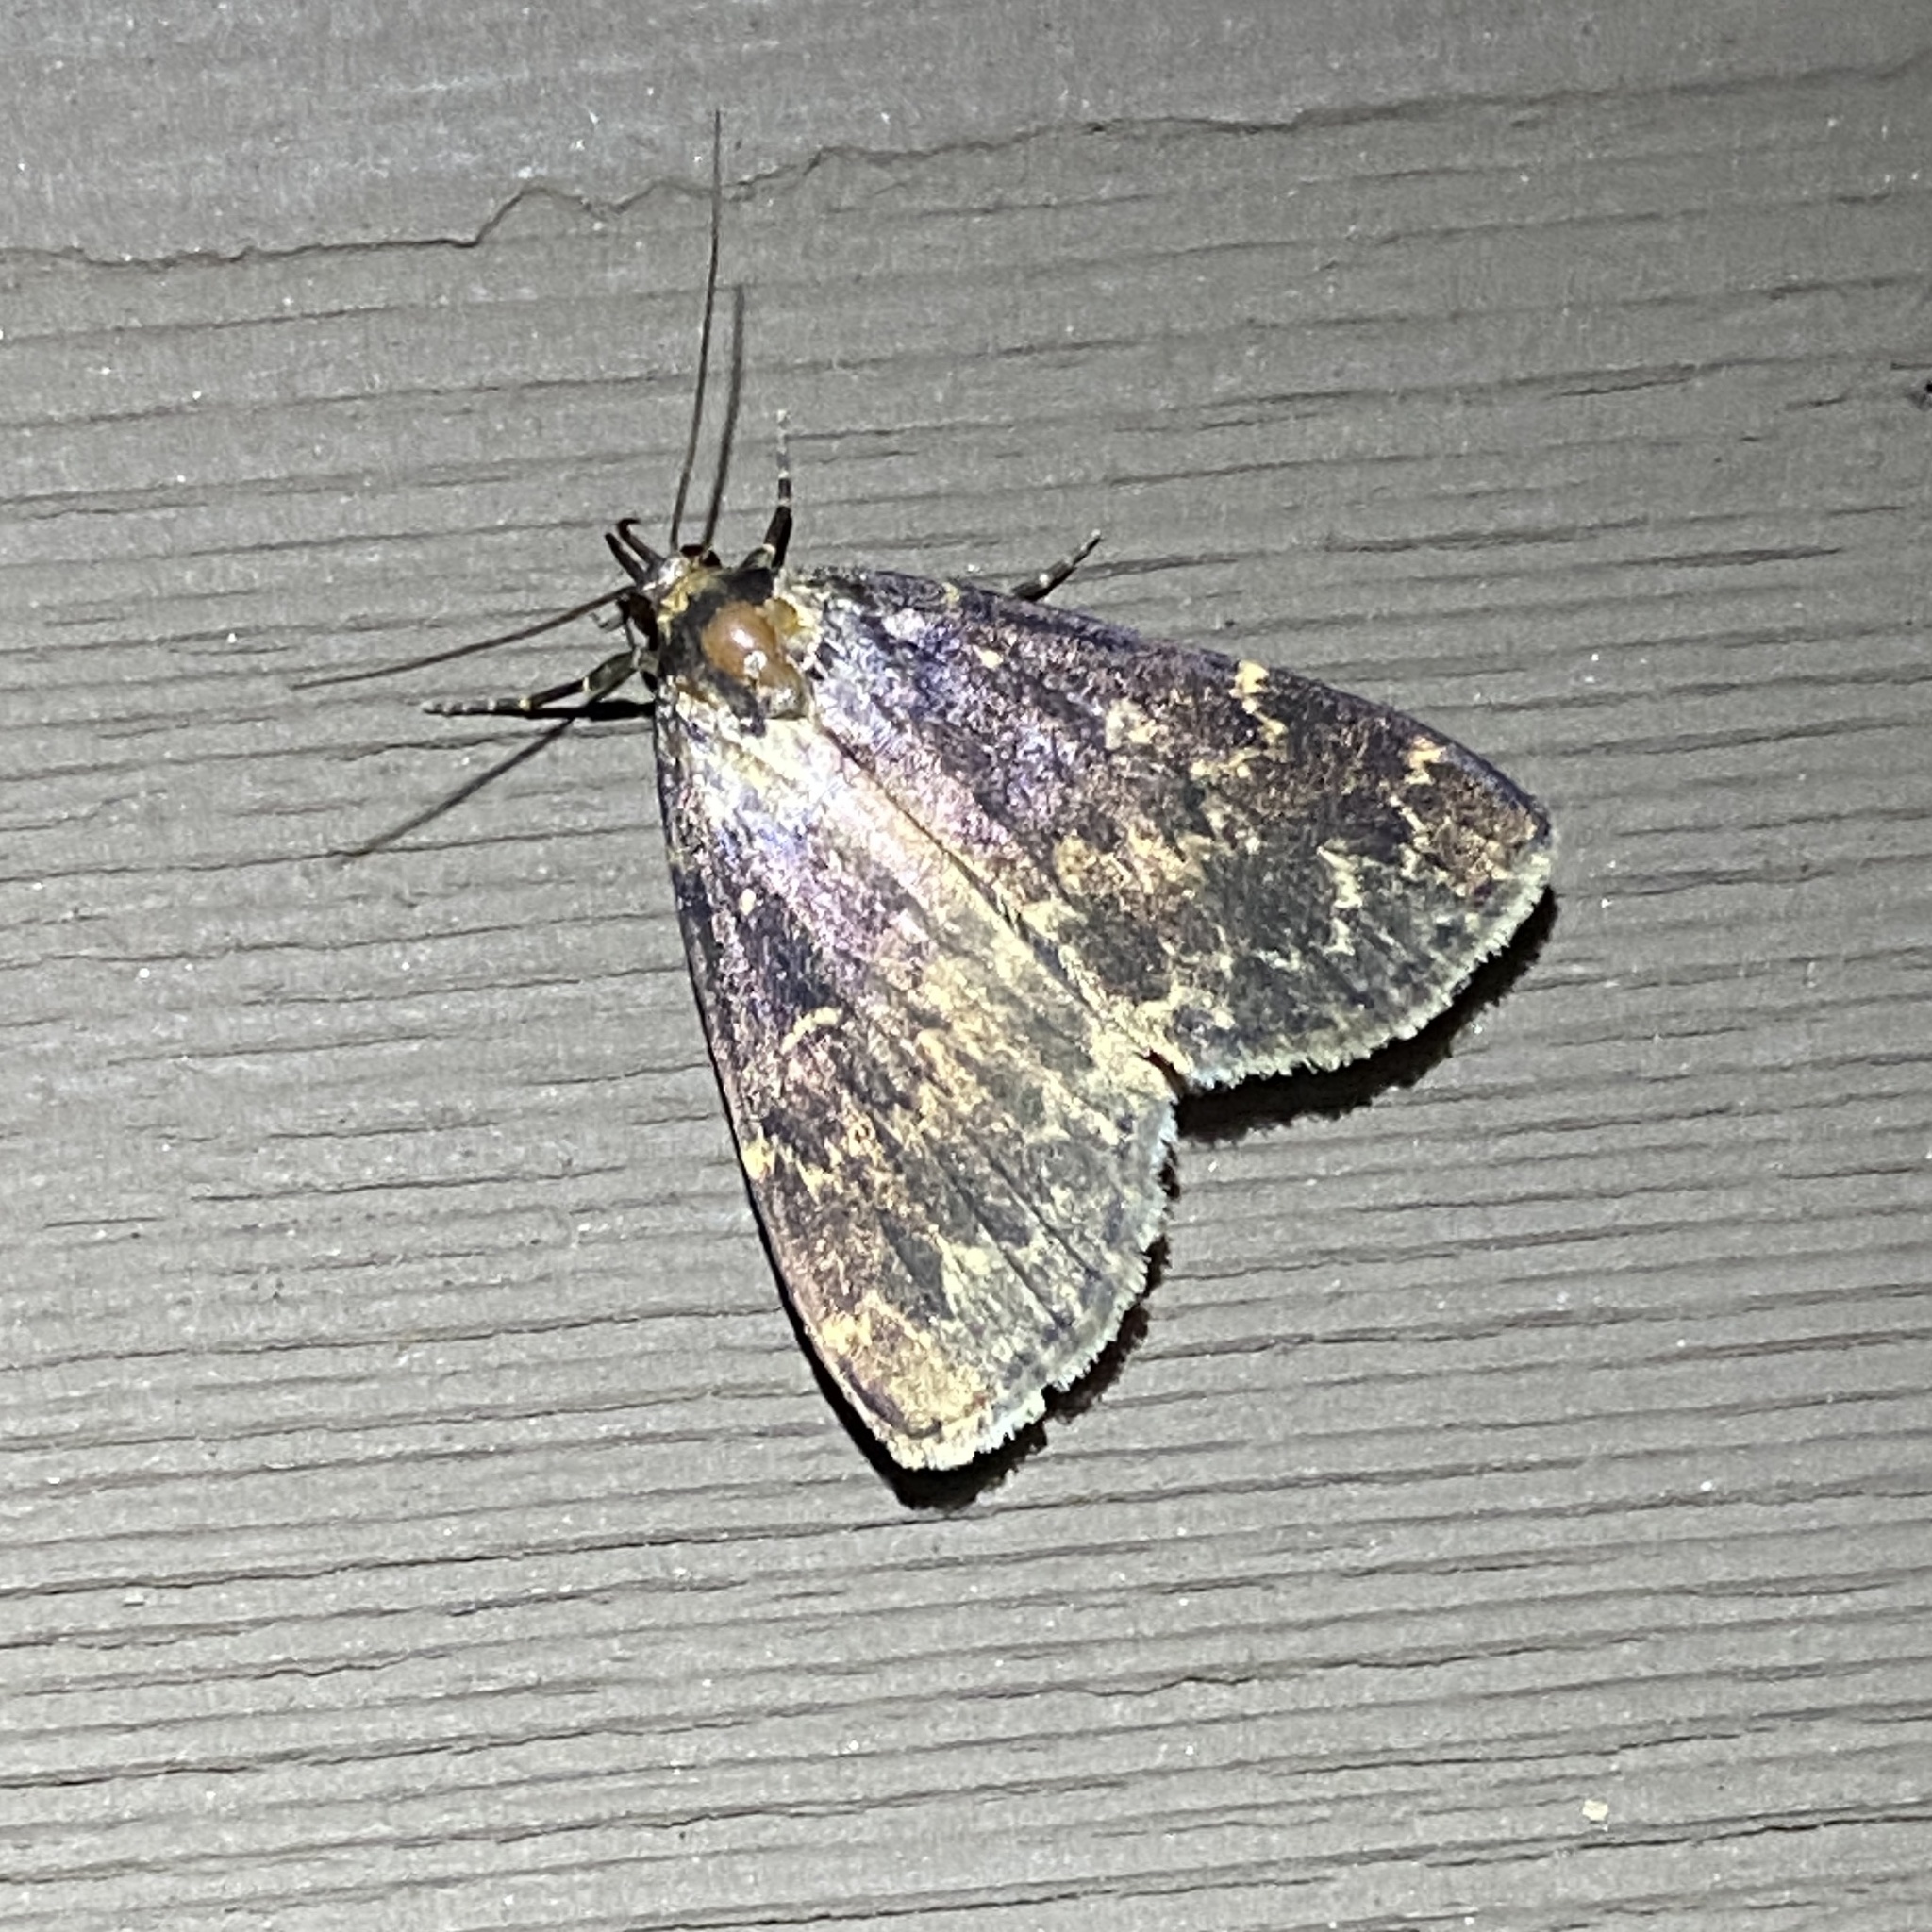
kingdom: Animalia
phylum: Arthropoda
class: Insecta
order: Lepidoptera
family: Erebidae
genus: Idia
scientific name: Idia lubricalis
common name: Twin-striped tabby
